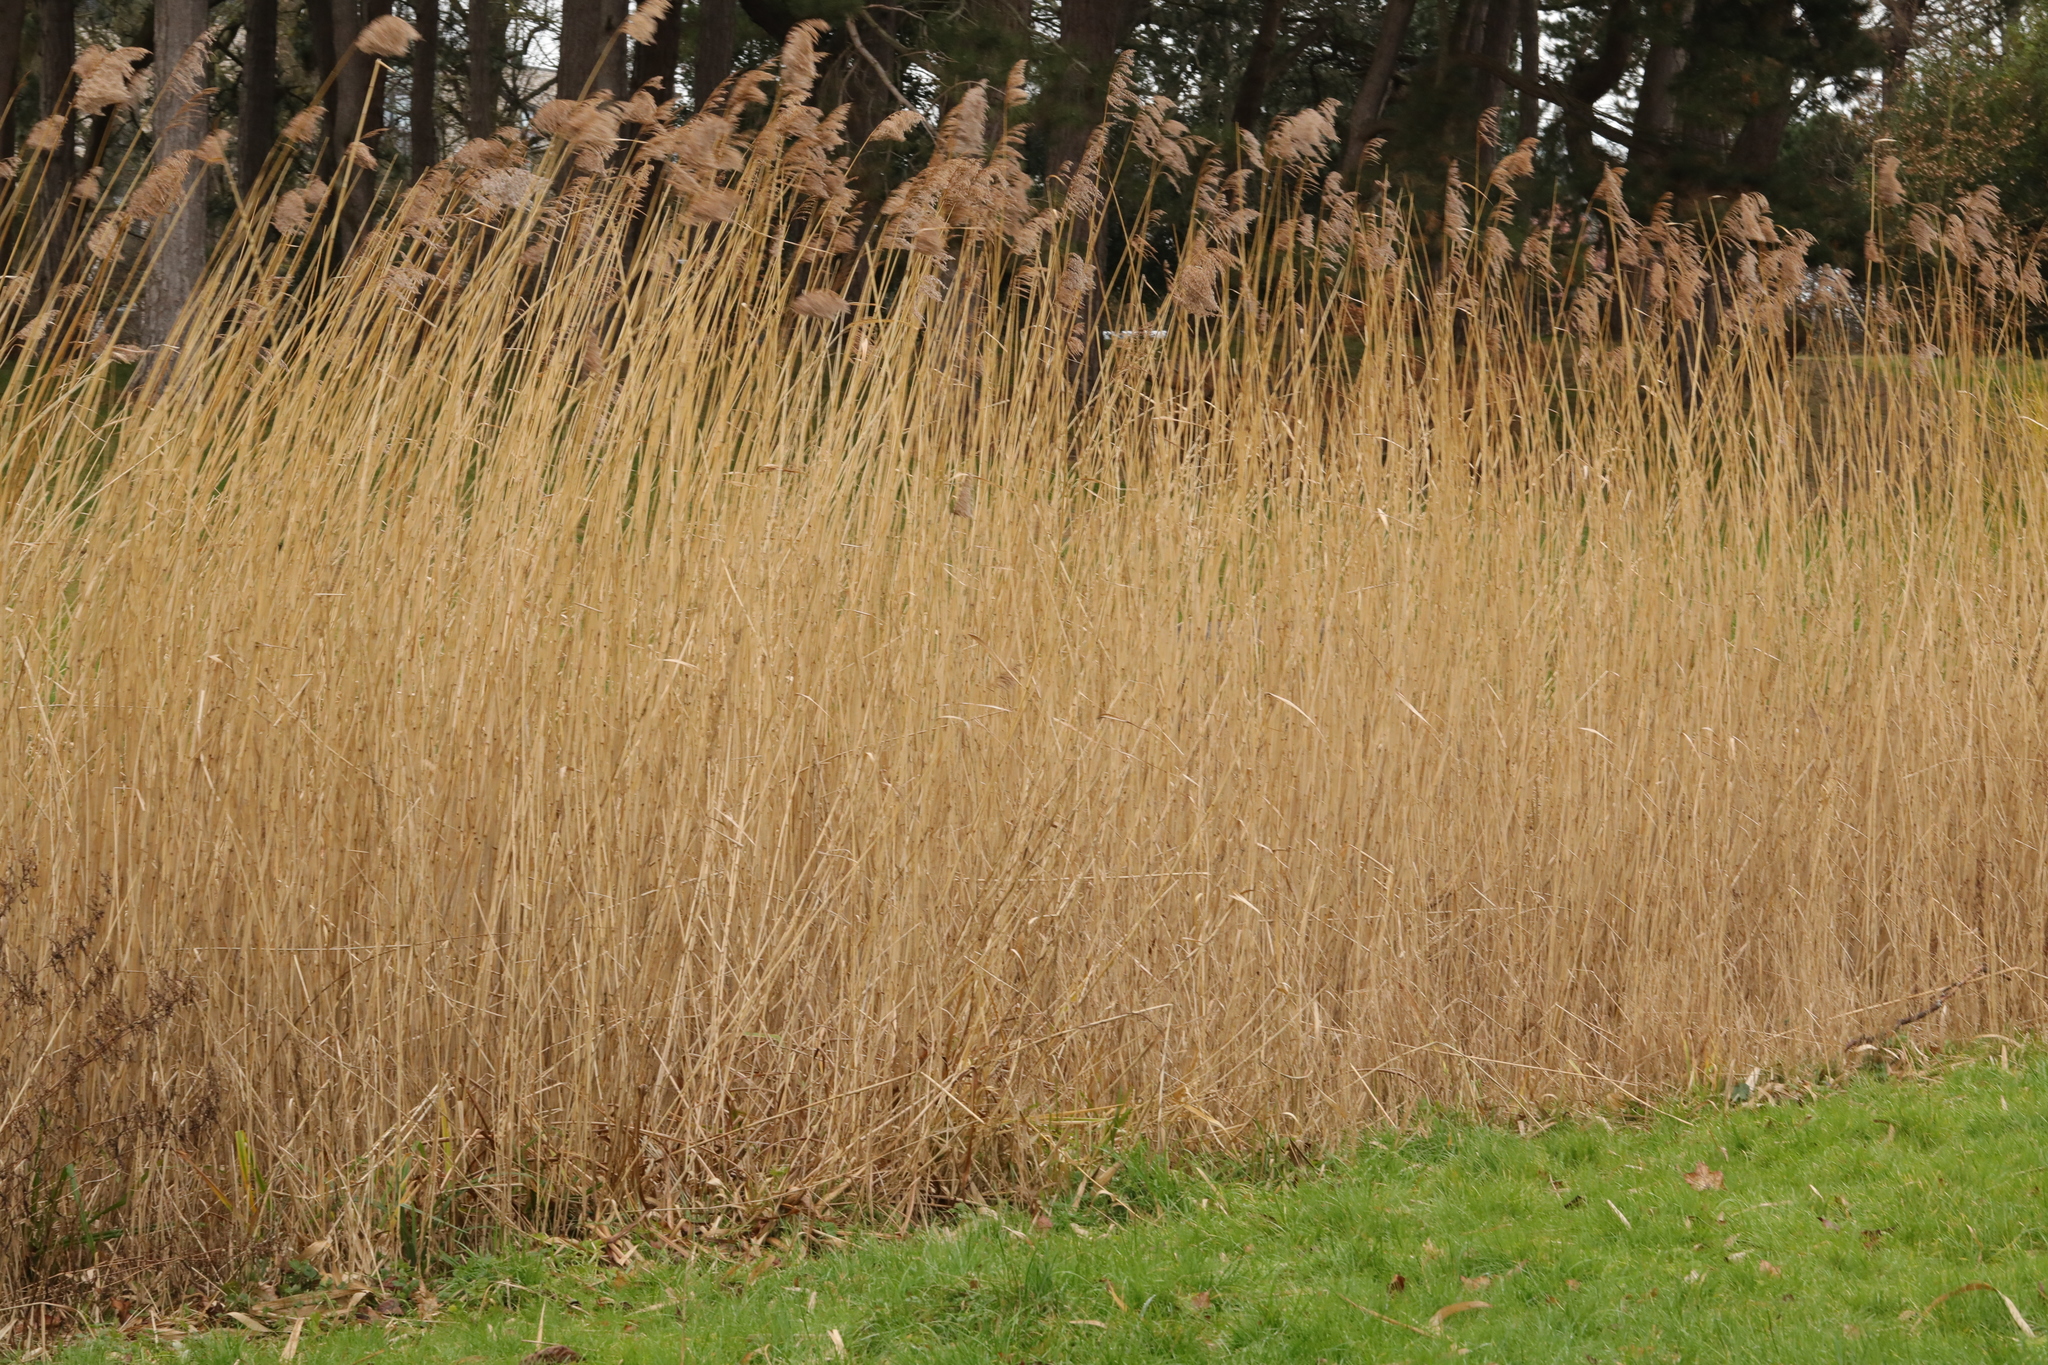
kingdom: Plantae
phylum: Tracheophyta
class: Liliopsida
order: Poales
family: Poaceae
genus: Phragmites
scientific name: Phragmites australis
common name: Common reed
